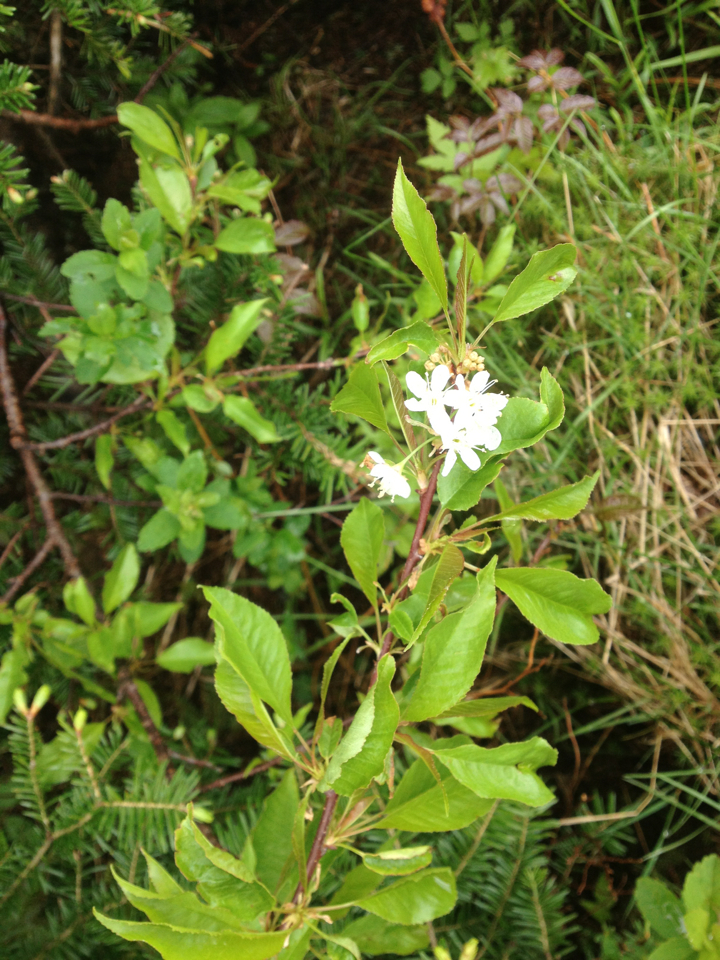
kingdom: Plantae
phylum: Tracheophyta
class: Magnoliopsida
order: Rosales
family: Rosaceae
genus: Prunus
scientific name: Prunus pensylvanica
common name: Pin cherry
